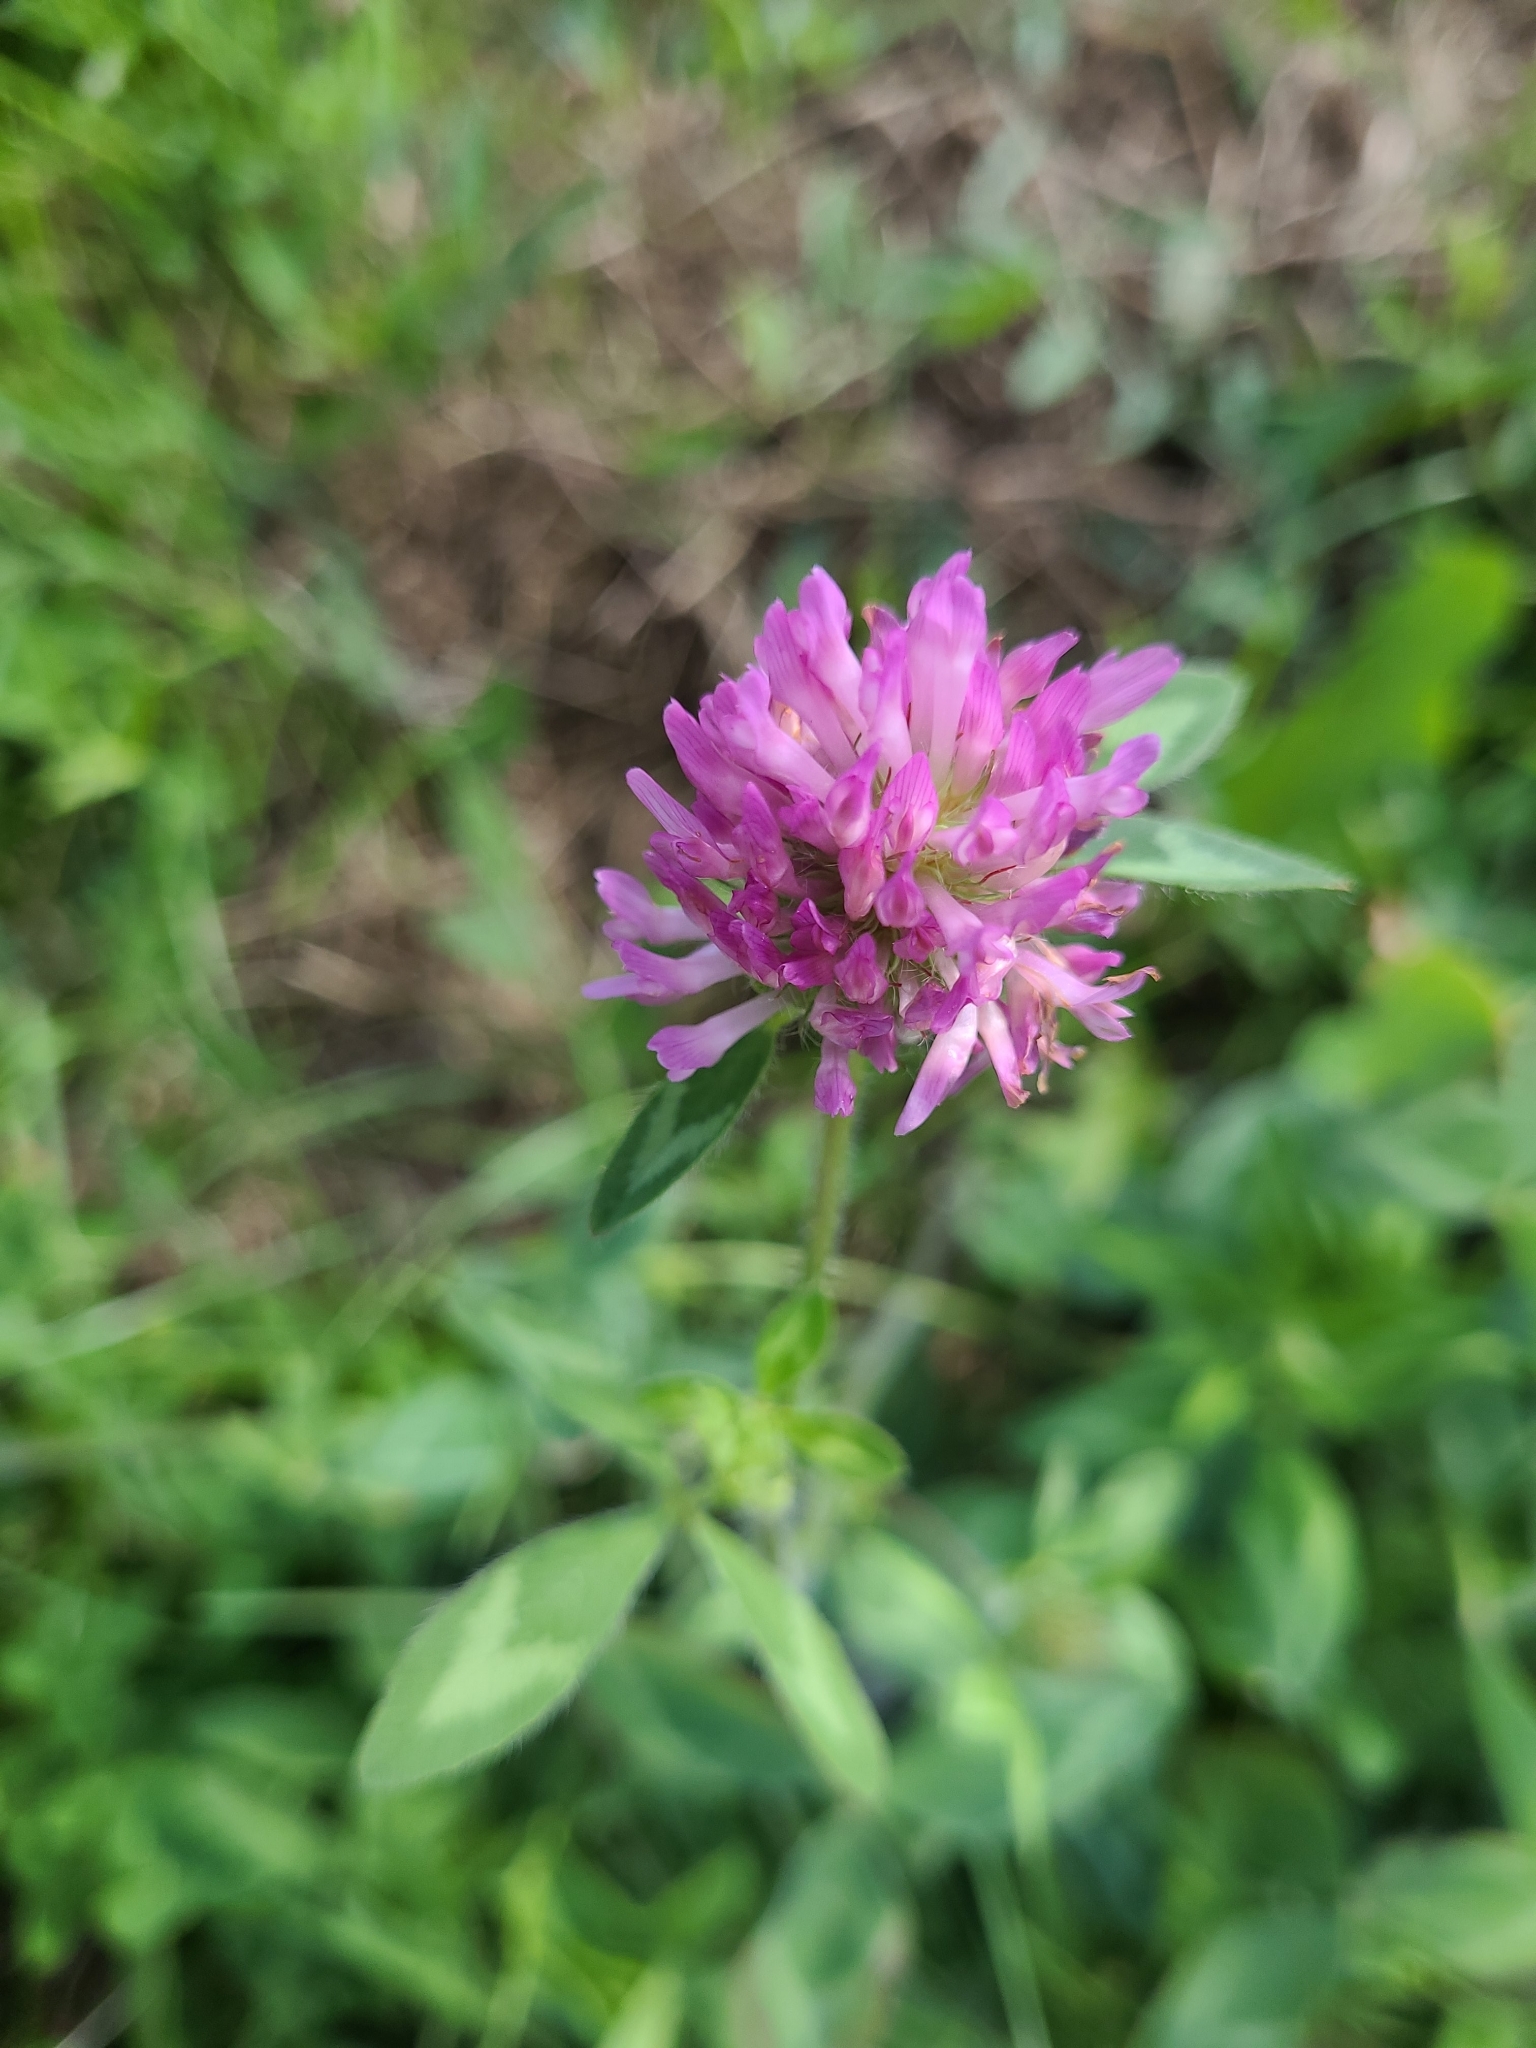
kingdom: Plantae
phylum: Tracheophyta
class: Magnoliopsida
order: Fabales
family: Fabaceae
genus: Trifolium
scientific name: Trifolium pratense
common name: Red clover
